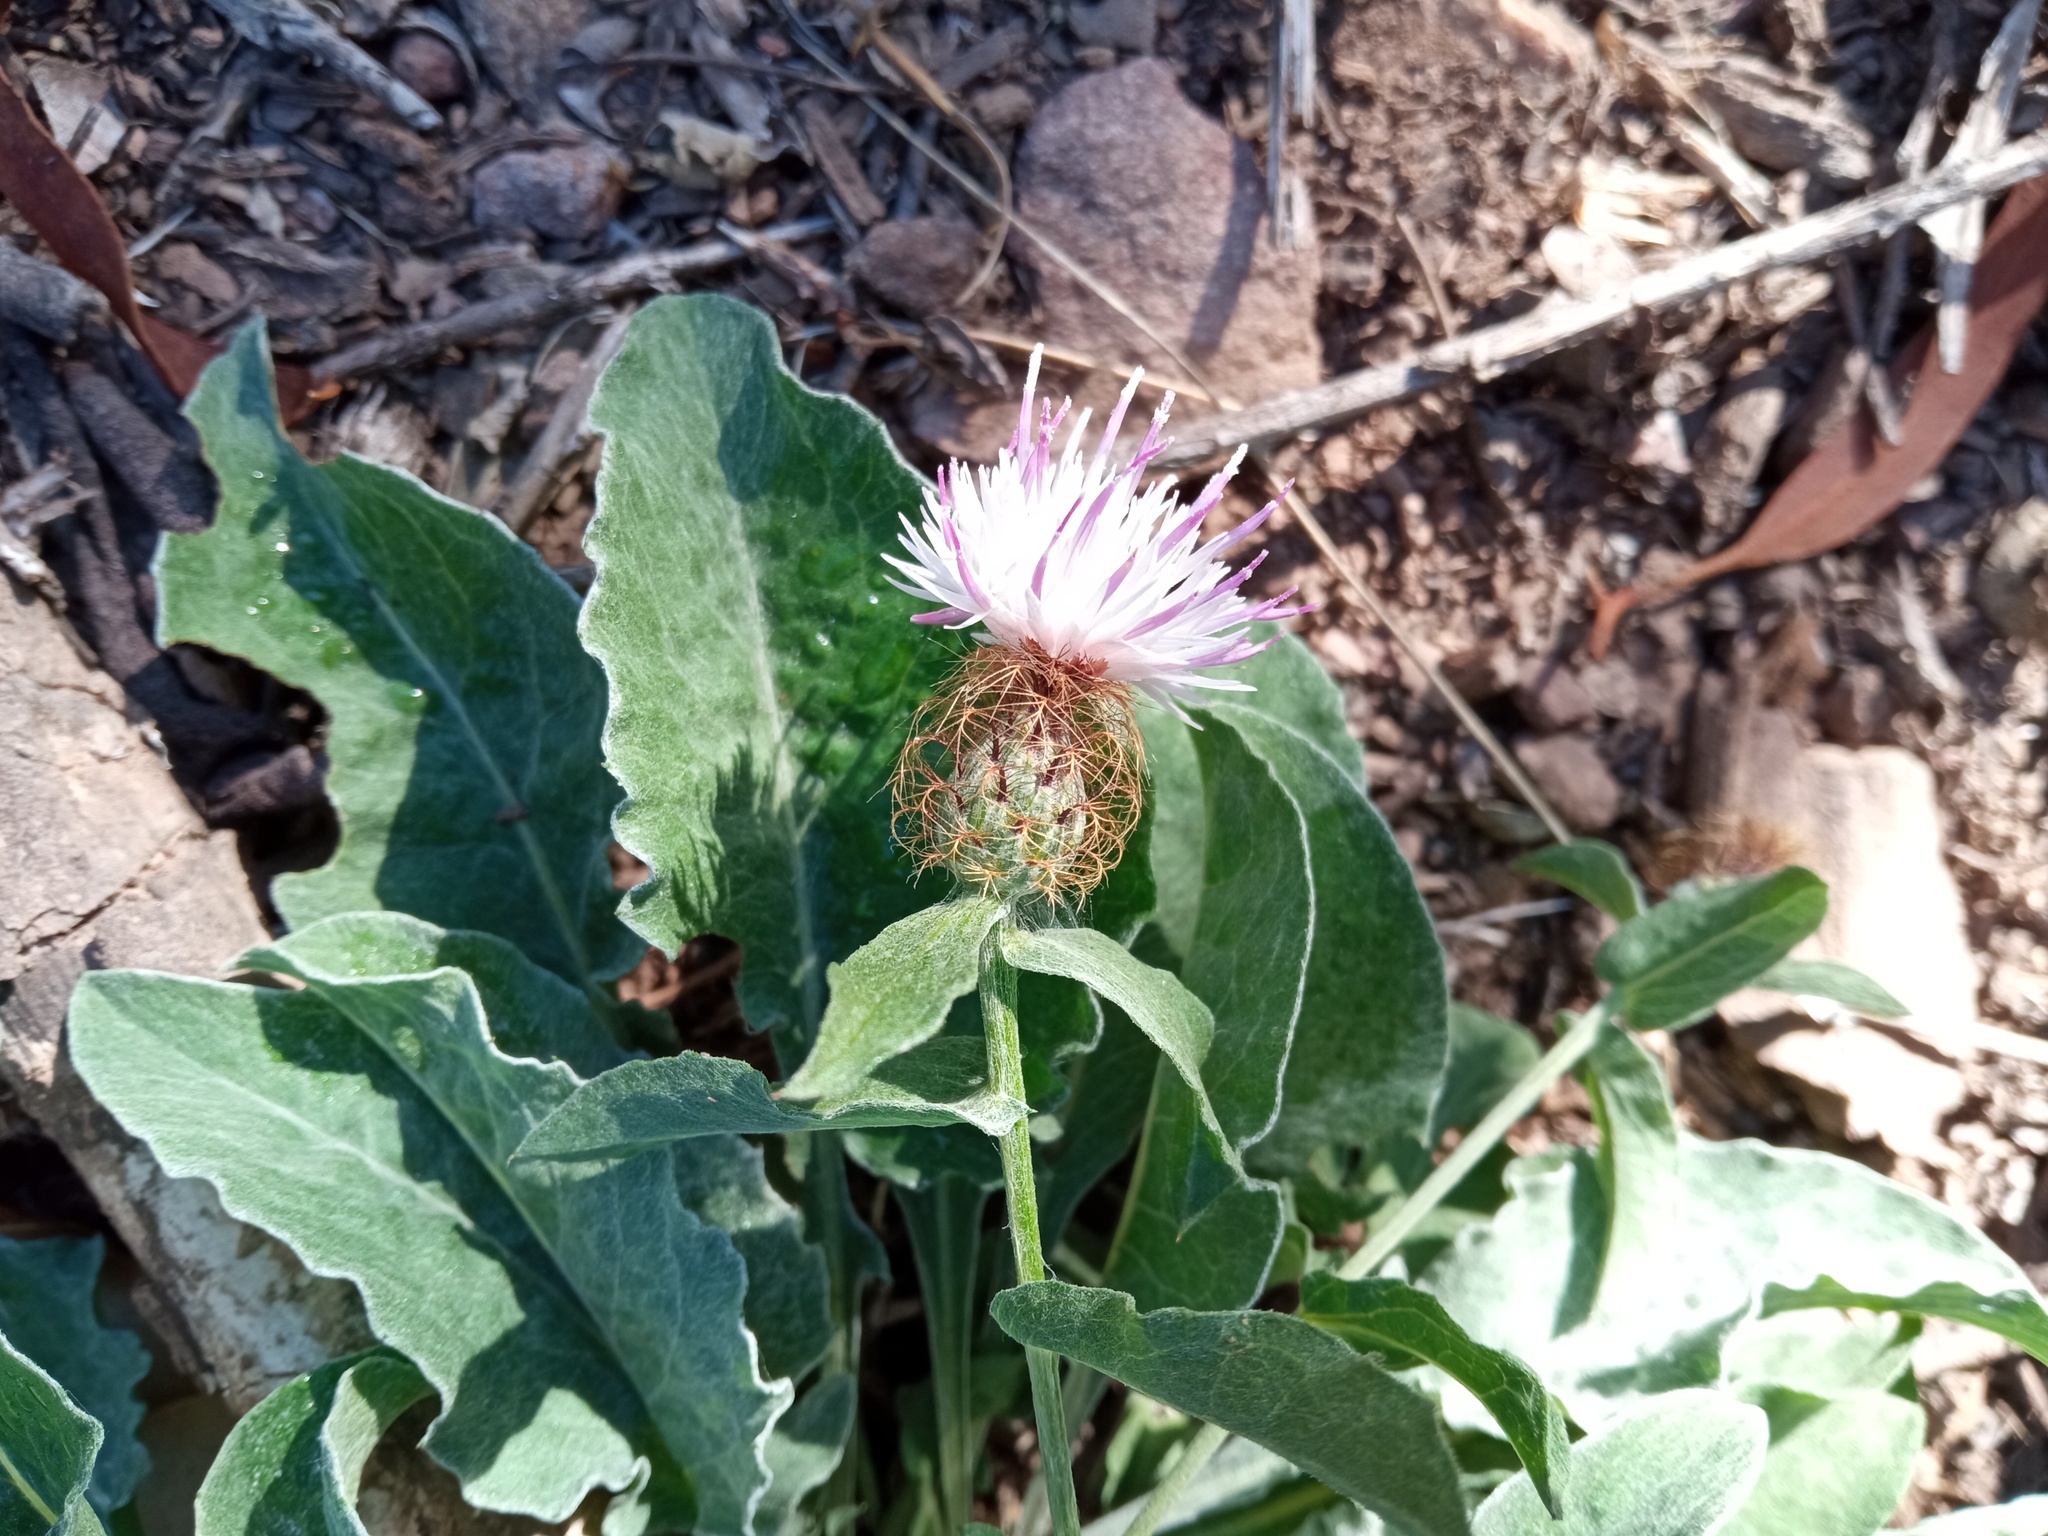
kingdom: Plantae
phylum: Tracheophyta
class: Magnoliopsida
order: Asterales
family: Asteraceae
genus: Centaurea
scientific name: Centaurea pectinata
